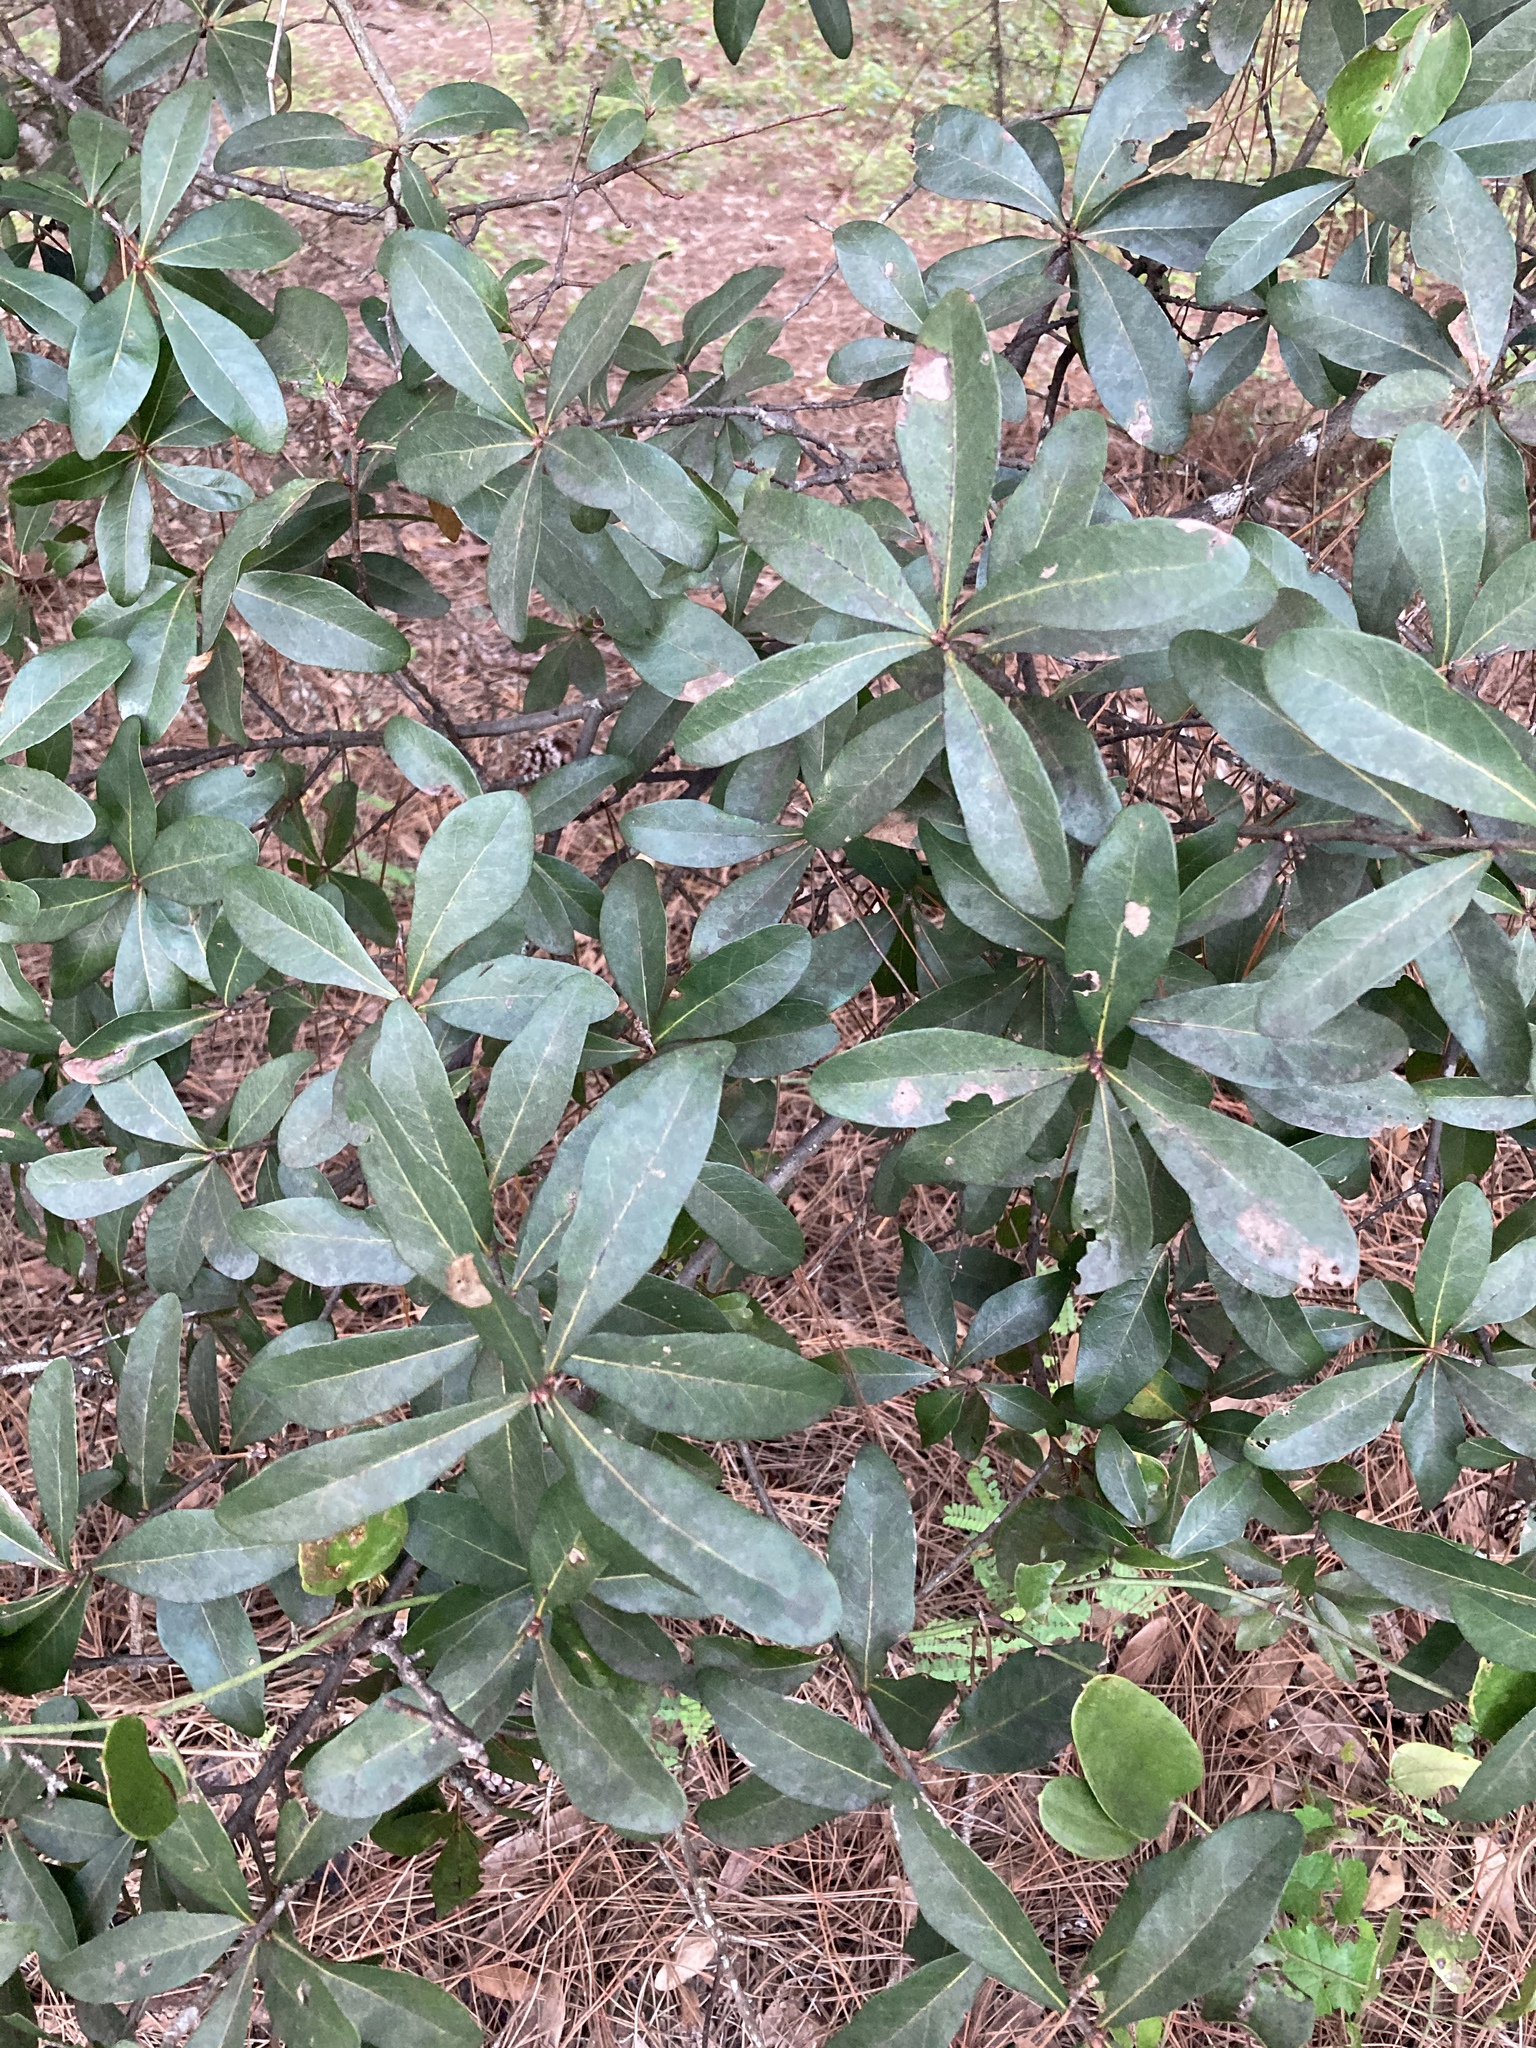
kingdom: Plantae
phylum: Tracheophyta
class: Magnoliopsida
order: Fagales
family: Fagaceae
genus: Quercus
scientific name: Quercus laurifolia
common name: Swamp laurel oak
